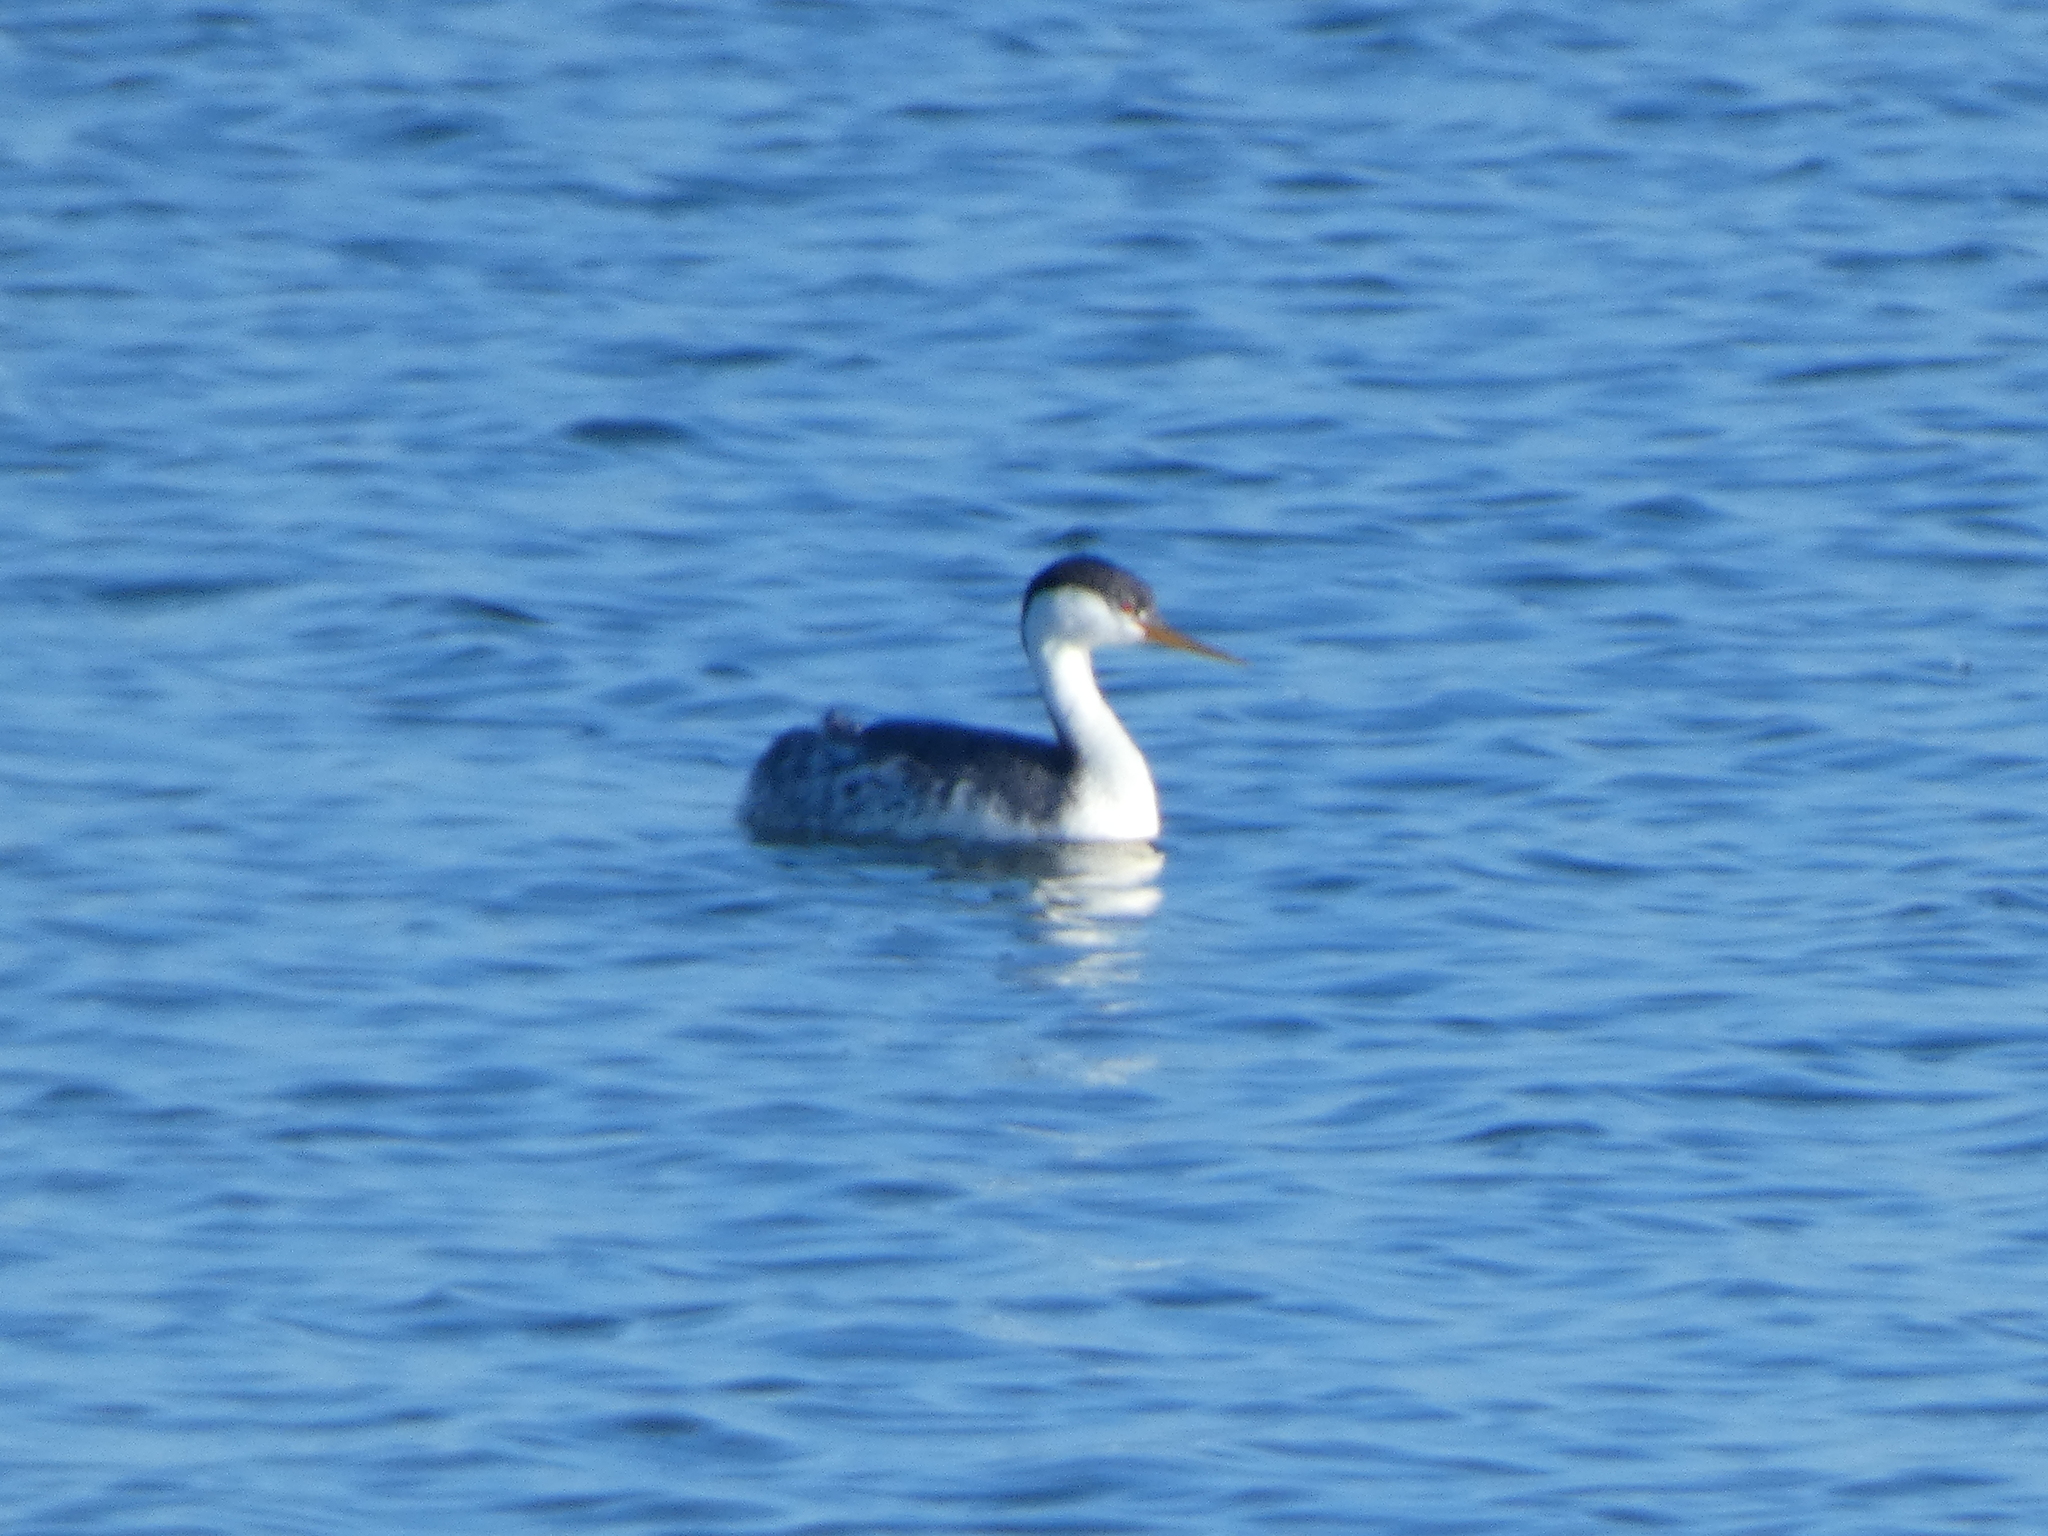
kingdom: Animalia
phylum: Chordata
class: Aves
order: Podicipediformes
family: Podicipedidae
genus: Aechmophorus
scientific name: Aechmophorus
